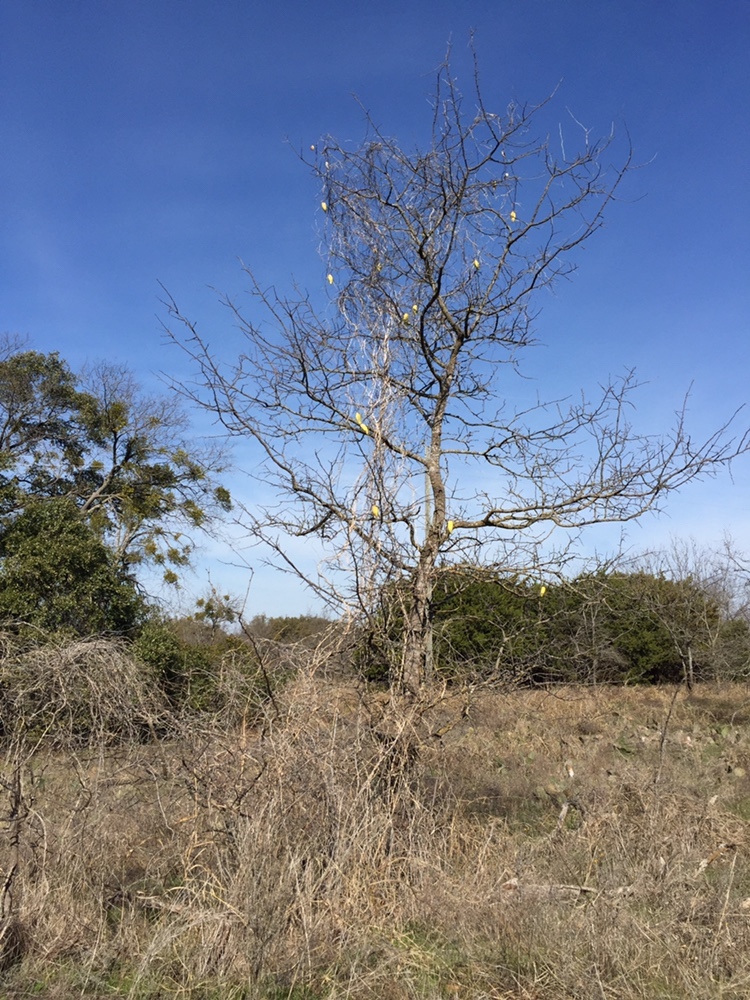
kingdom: Plantae
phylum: Tracheophyta
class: Magnoliopsida
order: Gentianales
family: Apocynaceae
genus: Cynanchum
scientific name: Cynanchum racemosum
